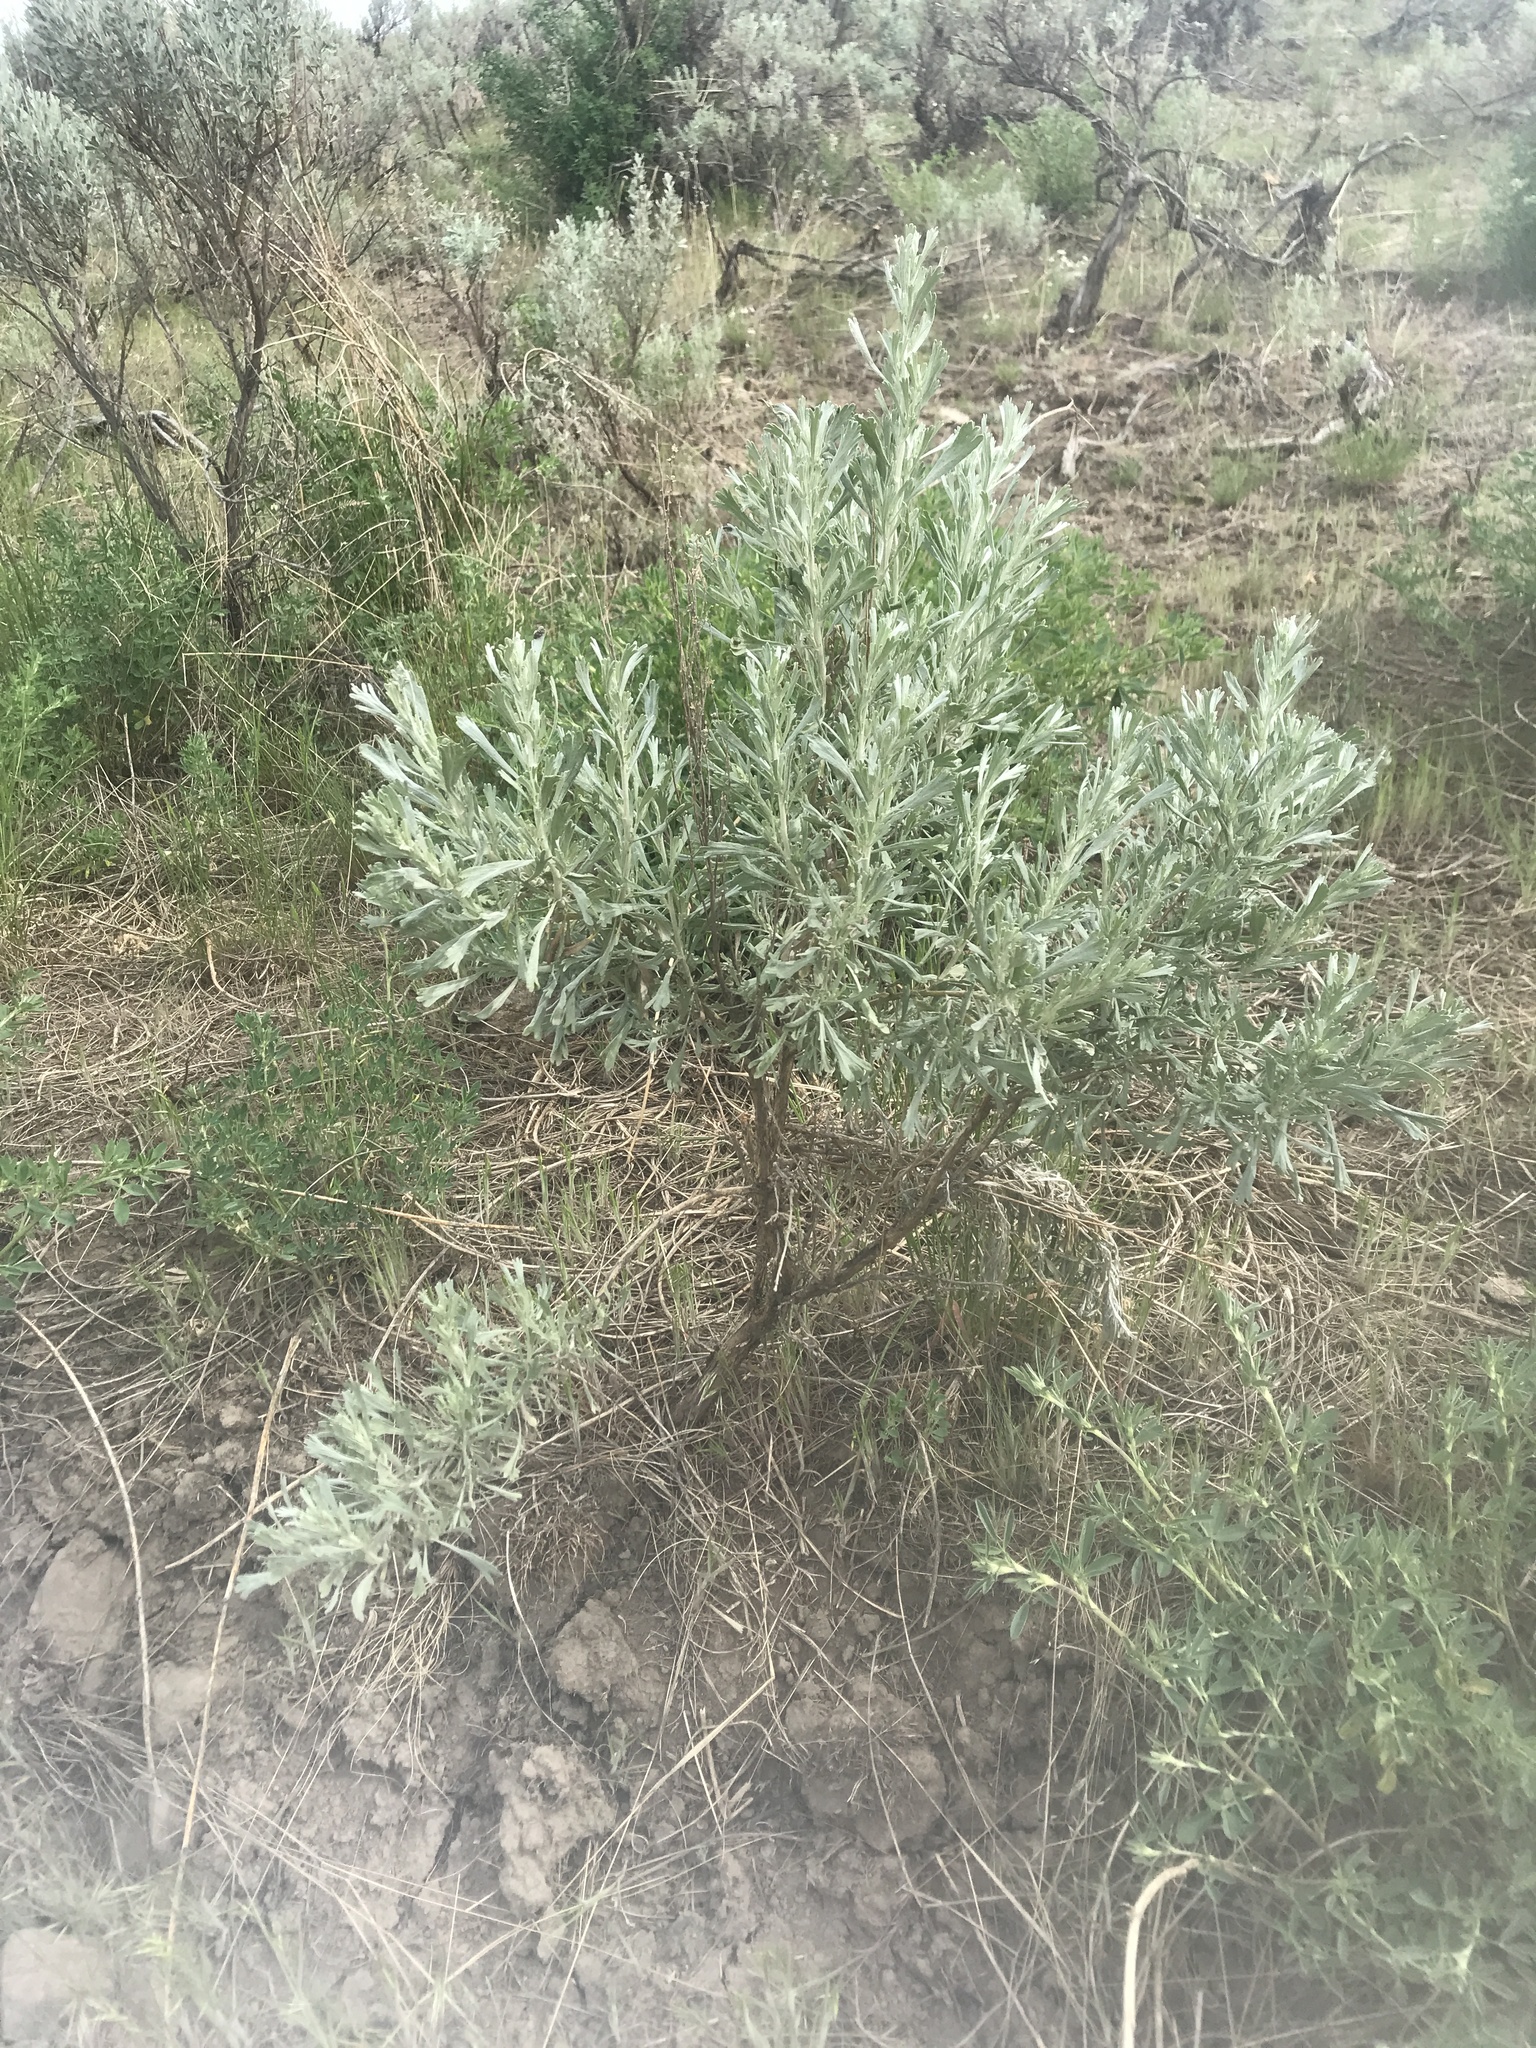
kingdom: Plantae
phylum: Tracheophyta
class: Magnoliopsida
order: Asterales
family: Asteraceae
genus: Artemisia
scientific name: Artemisia tridentata
